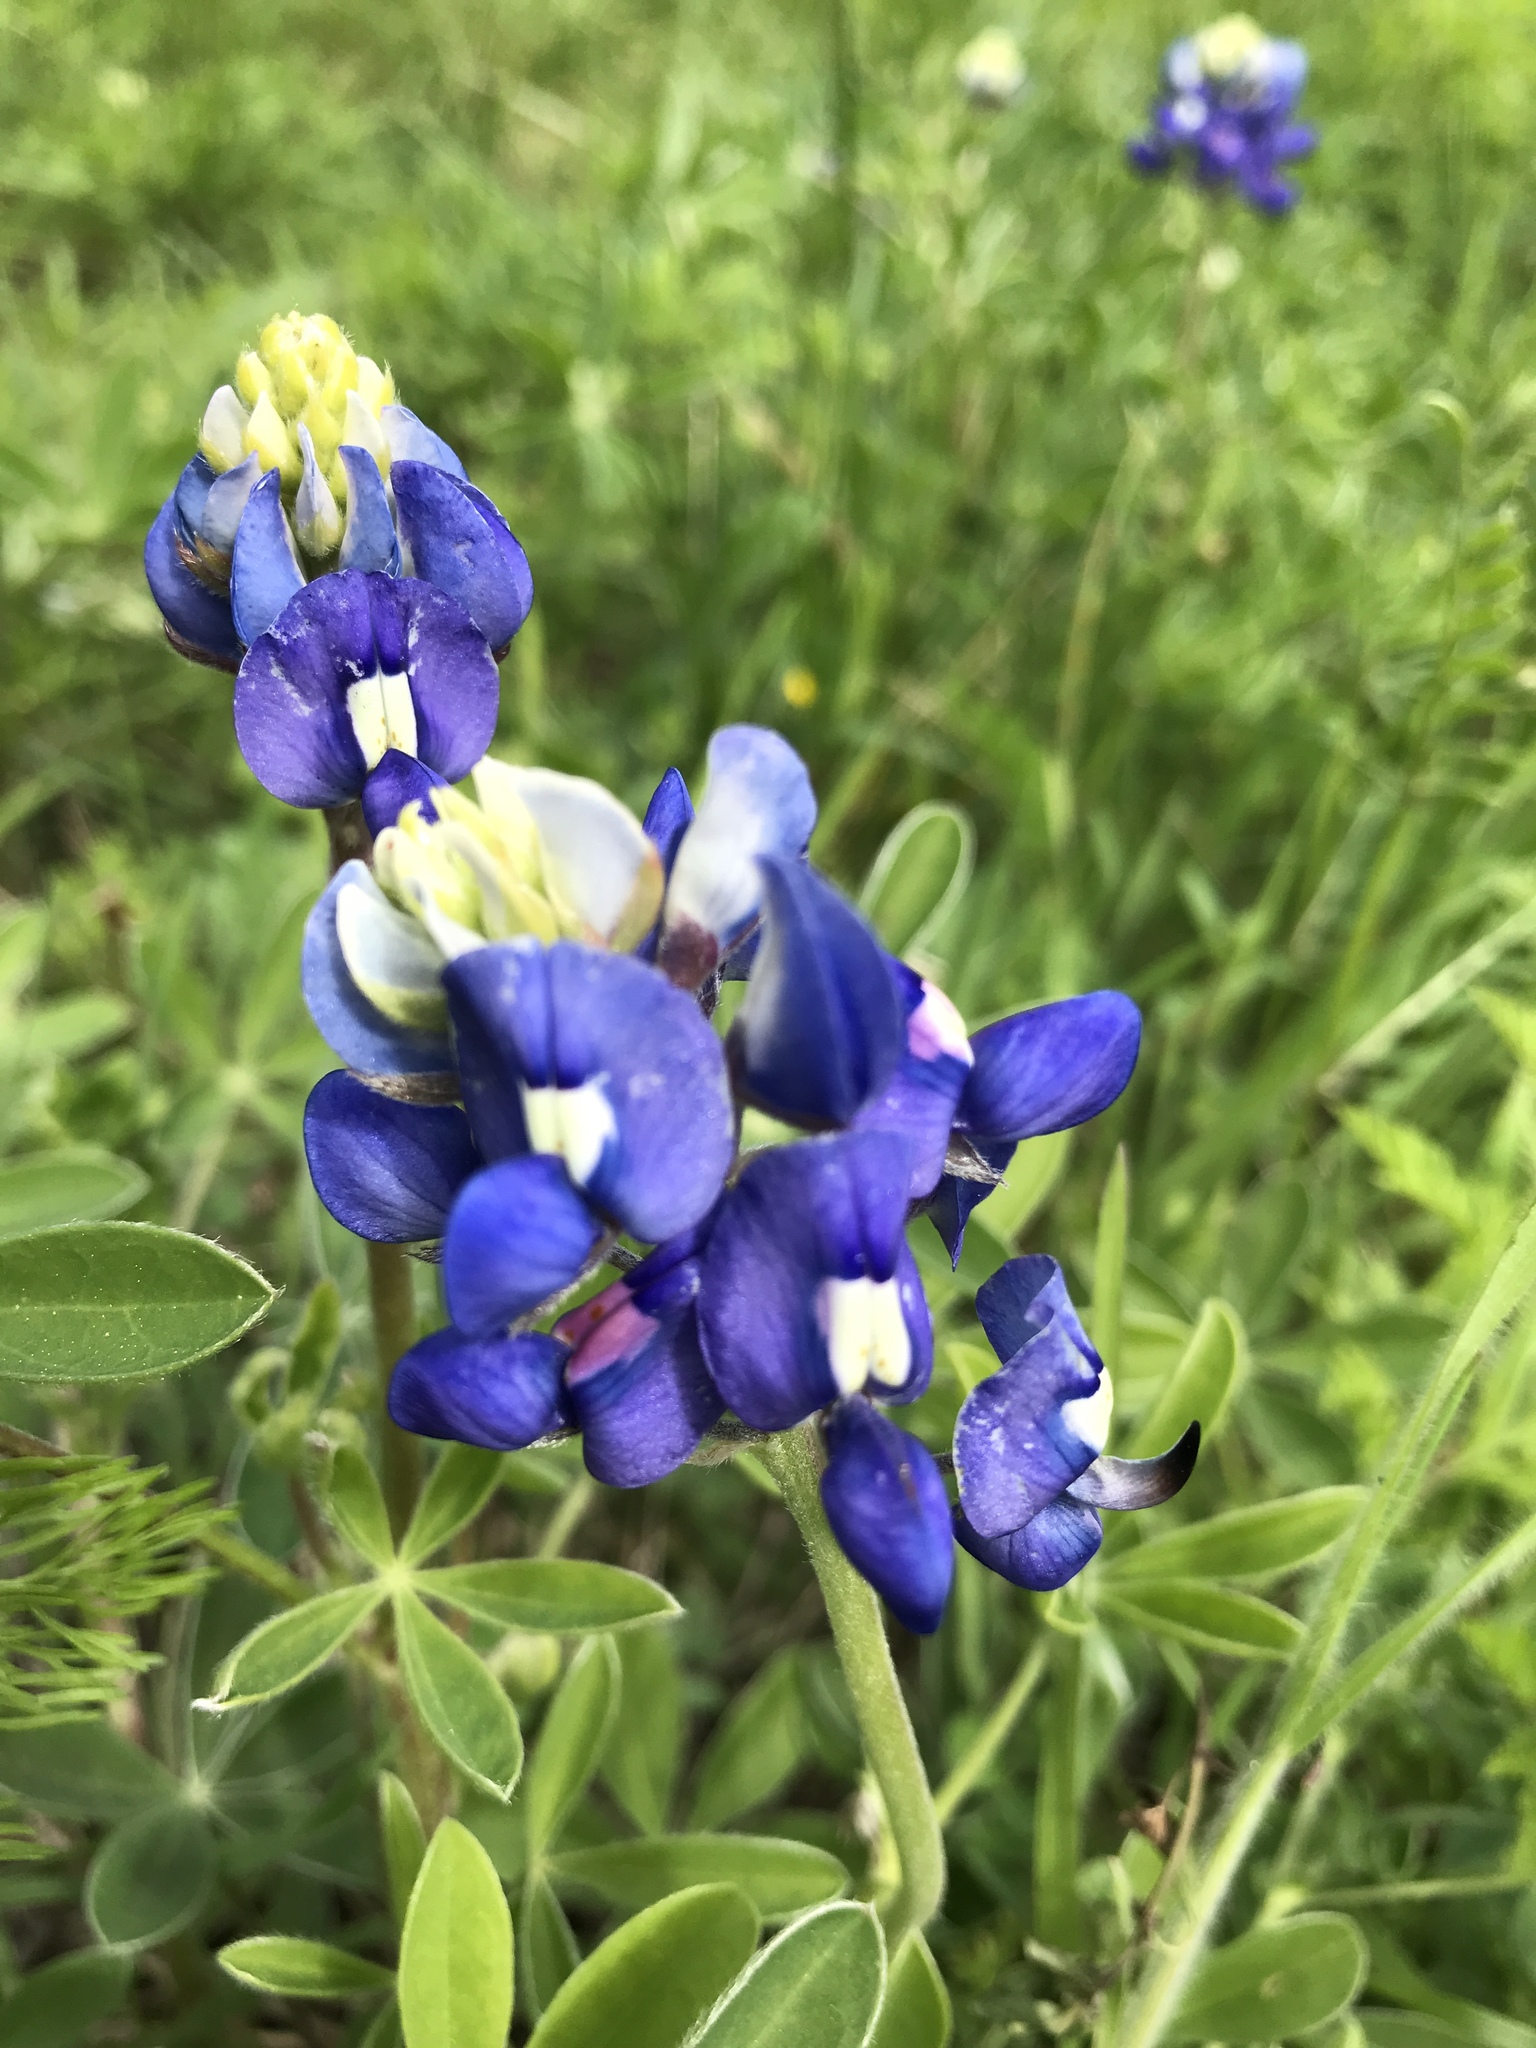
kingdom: Plantae
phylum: Tracheophyta
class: Magnoliopsida
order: Fabales
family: Fabaceae
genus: Lupinus
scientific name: Lupinus texensis
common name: Texas bluebonnet
